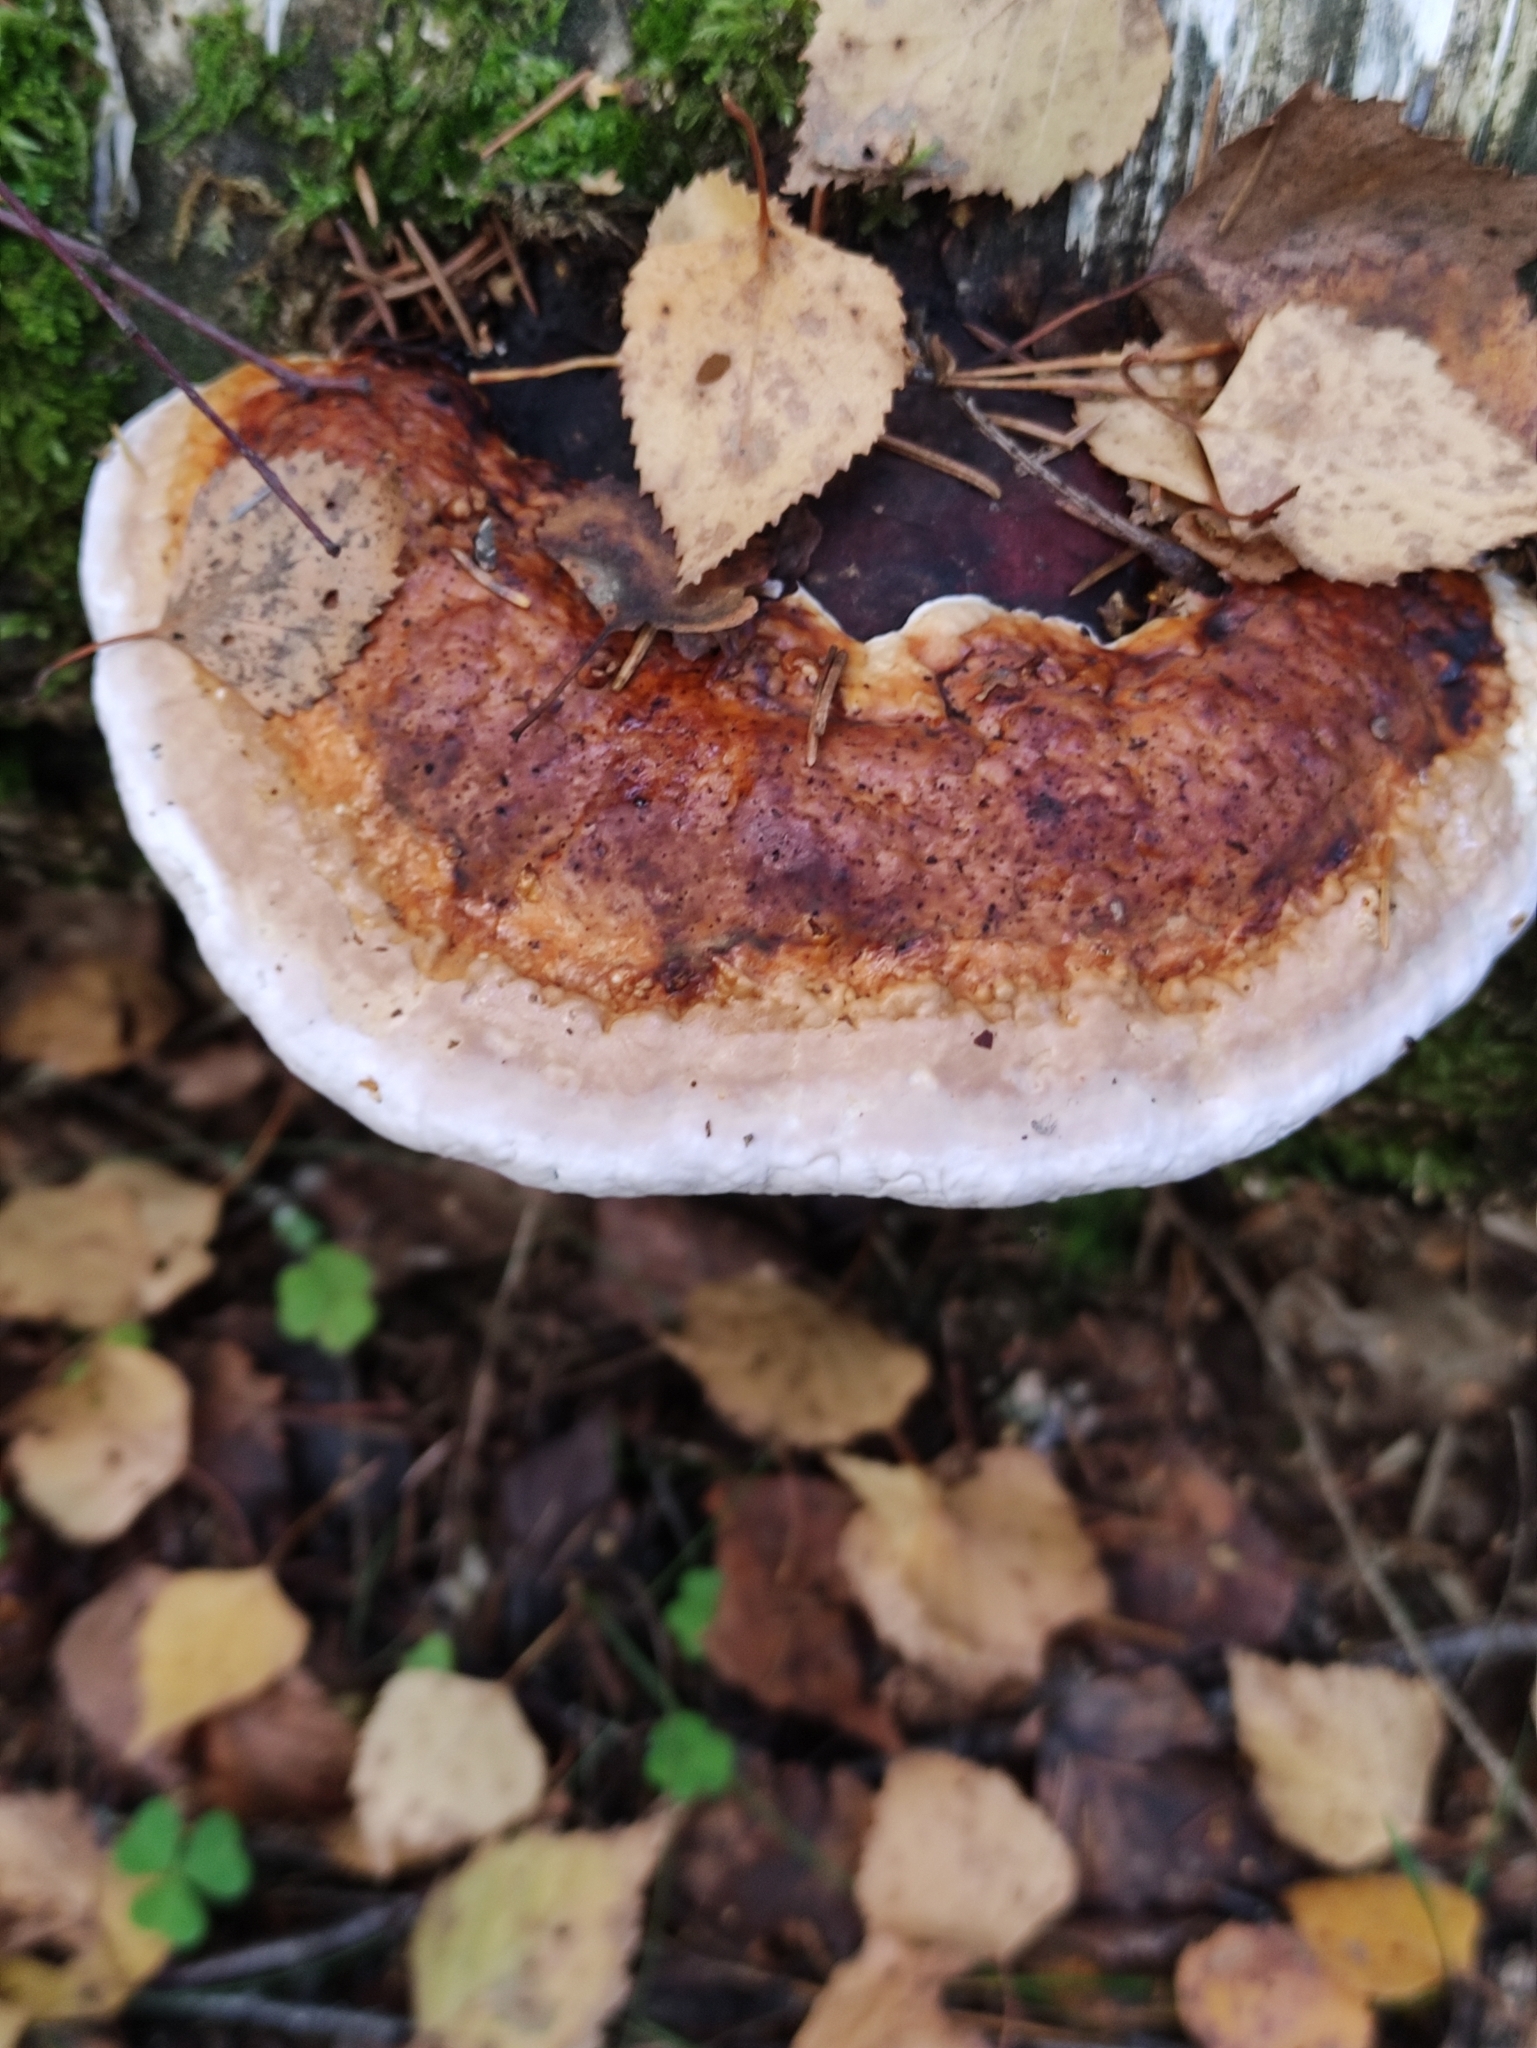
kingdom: Fungi
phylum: Basidiomycota
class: Agaricomycetes
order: Polyporales
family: Fomitopsidaceae
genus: Fomitopsis
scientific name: Fomitopsis pinicola
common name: Red-belted bracket
